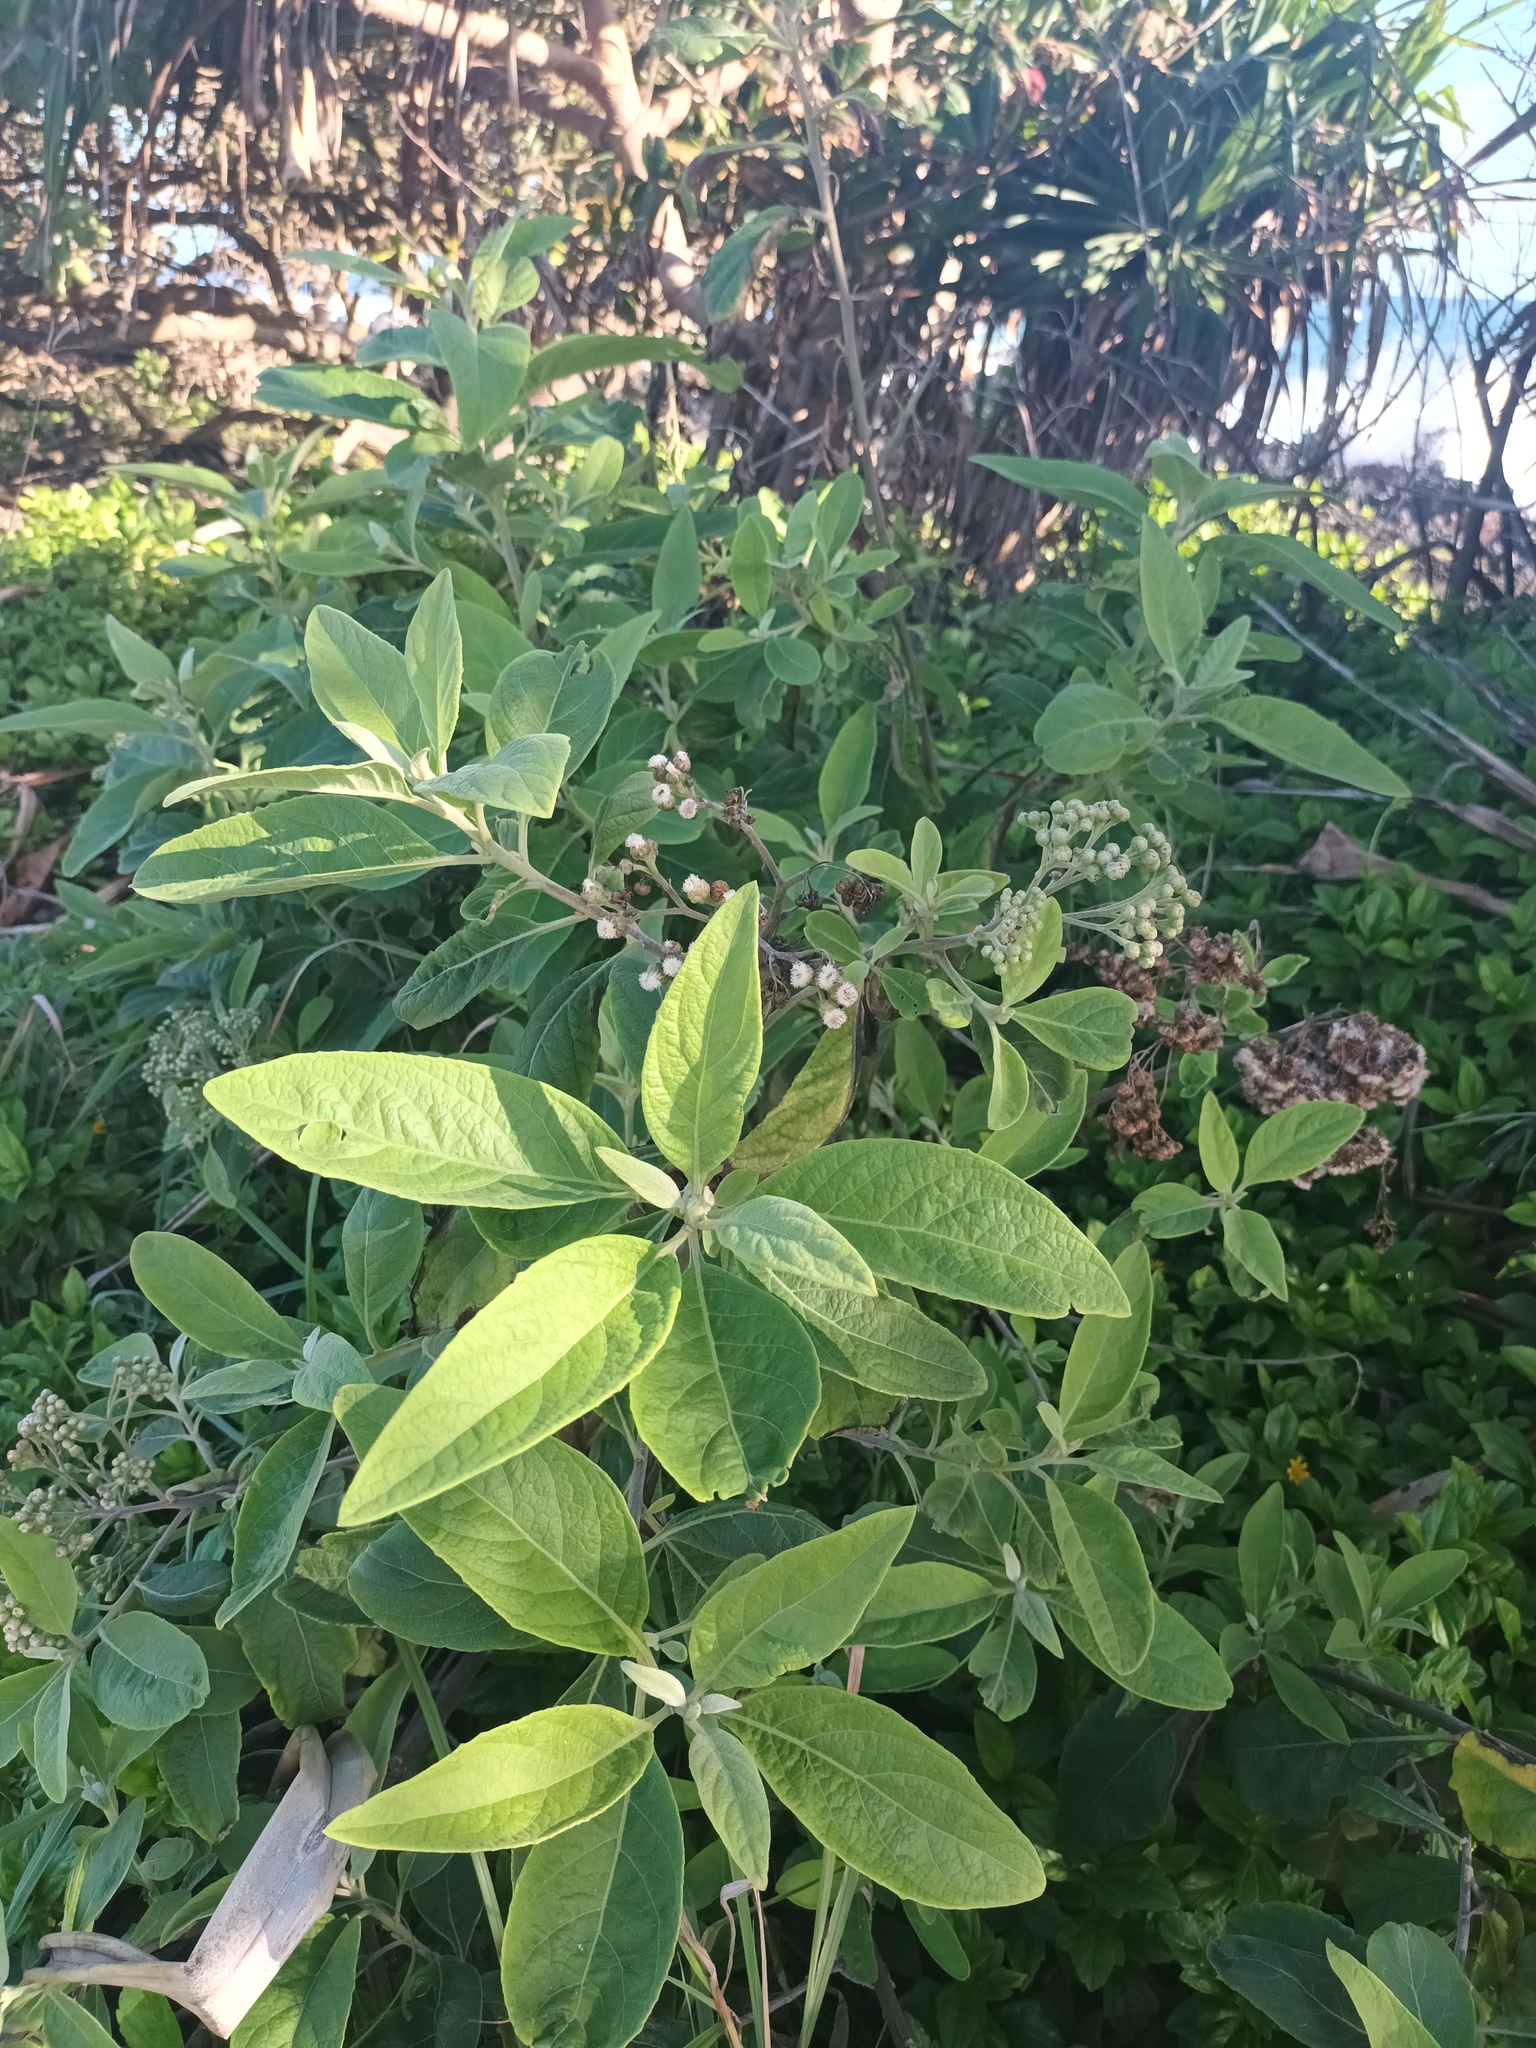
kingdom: Plantae
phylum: Tracheophyta
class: Magnoliopsida
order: Asterales
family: Asteraceae
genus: Pluchea
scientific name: Pluchea carolinensis
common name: Marsh fleabane
